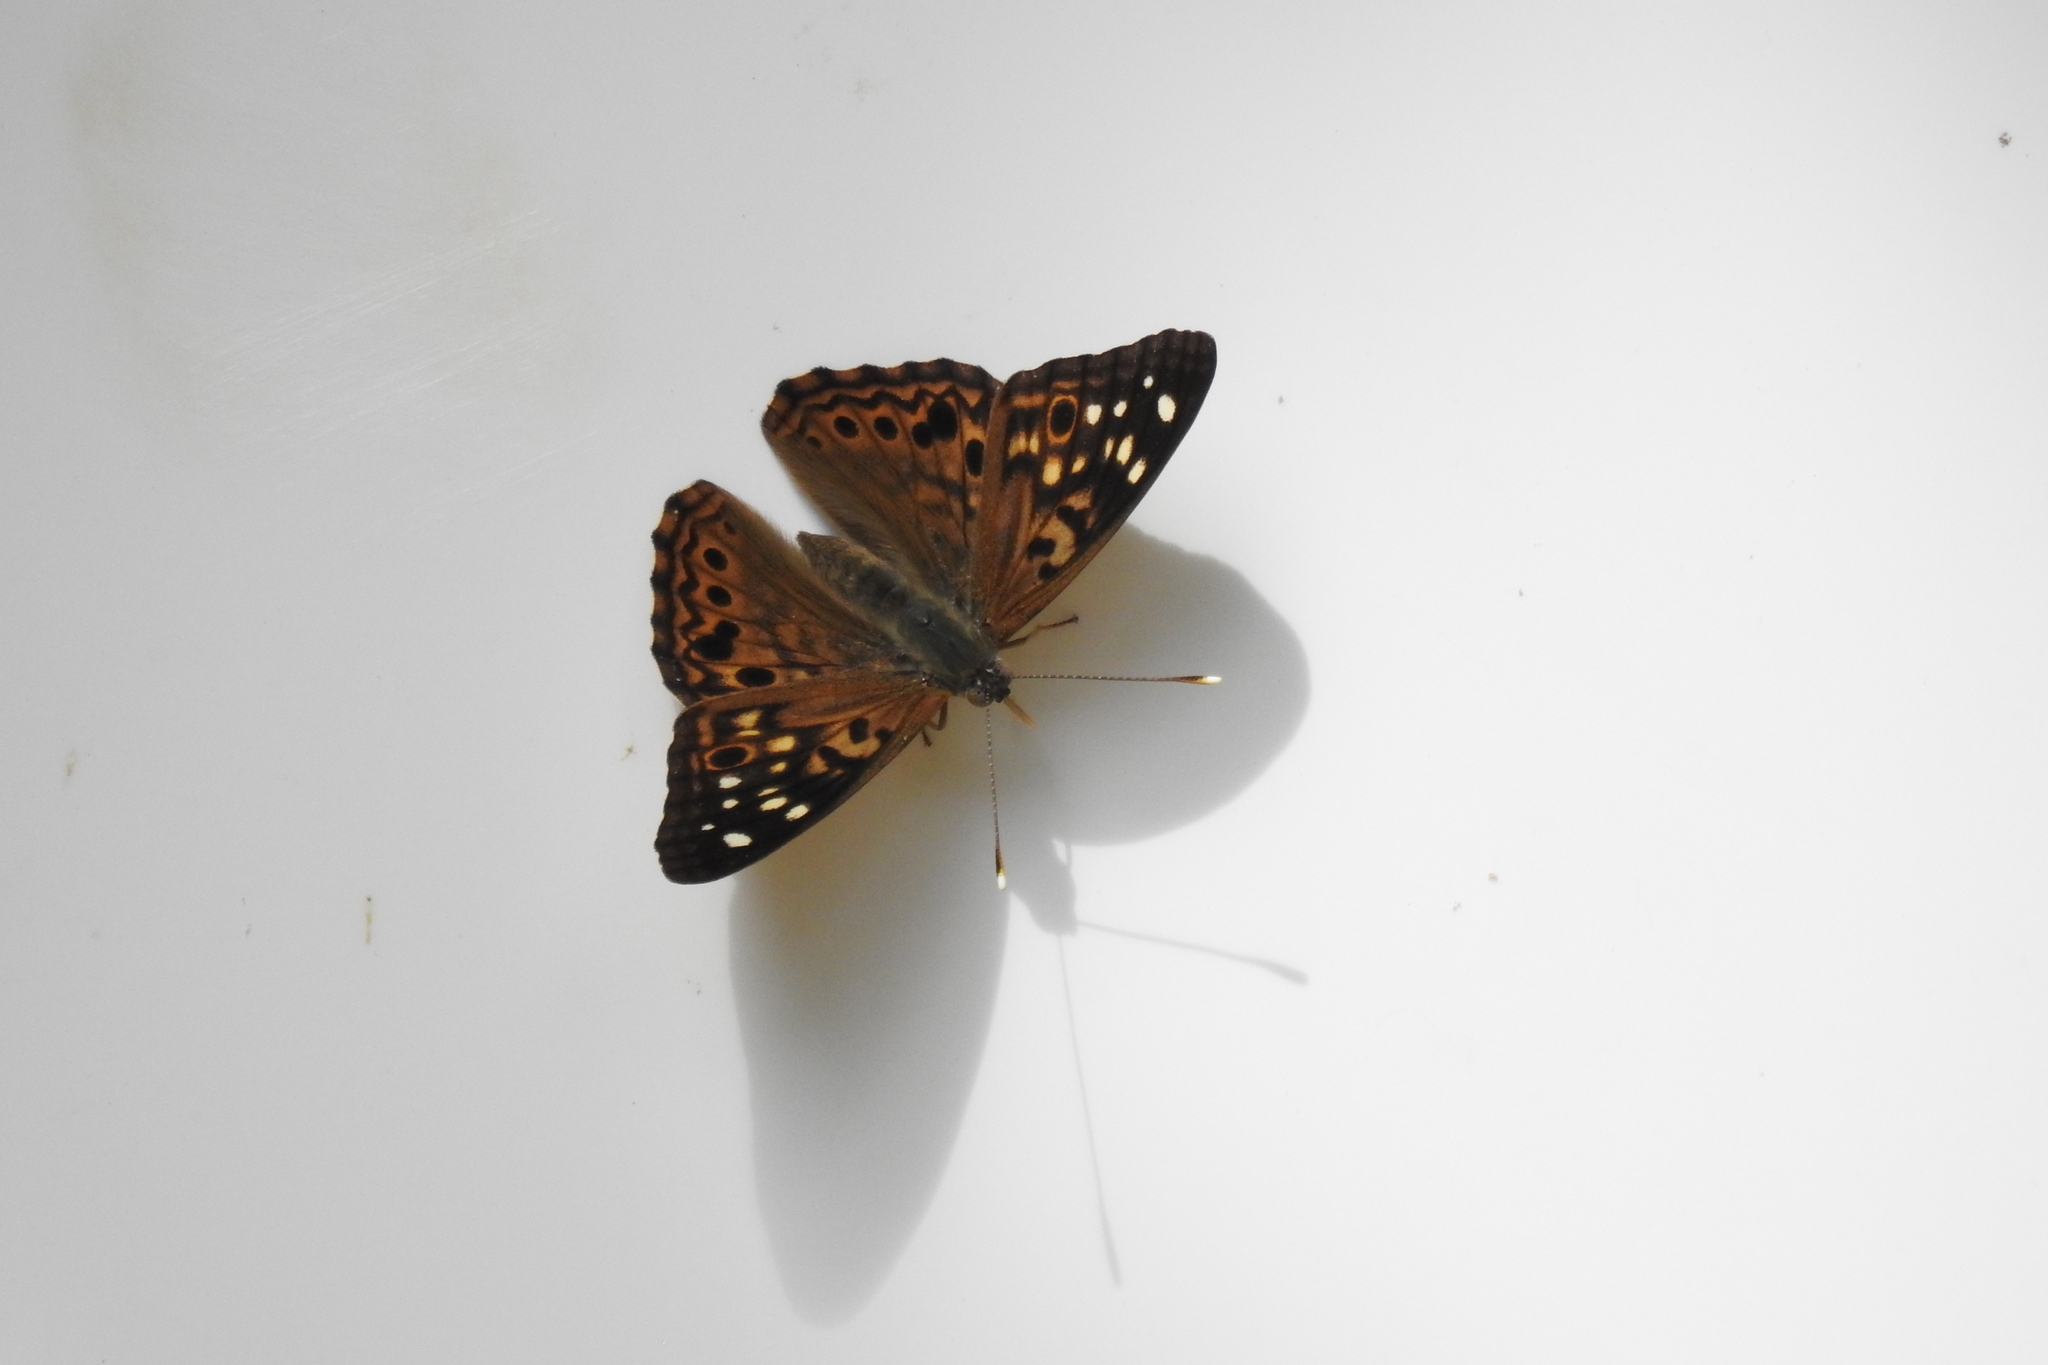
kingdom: Animalia
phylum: Arthropoda
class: Insecta
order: Lepidoptera
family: Nymphalidae
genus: Asterocampa
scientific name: Asterocampa celtis
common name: Hackberry emperor
